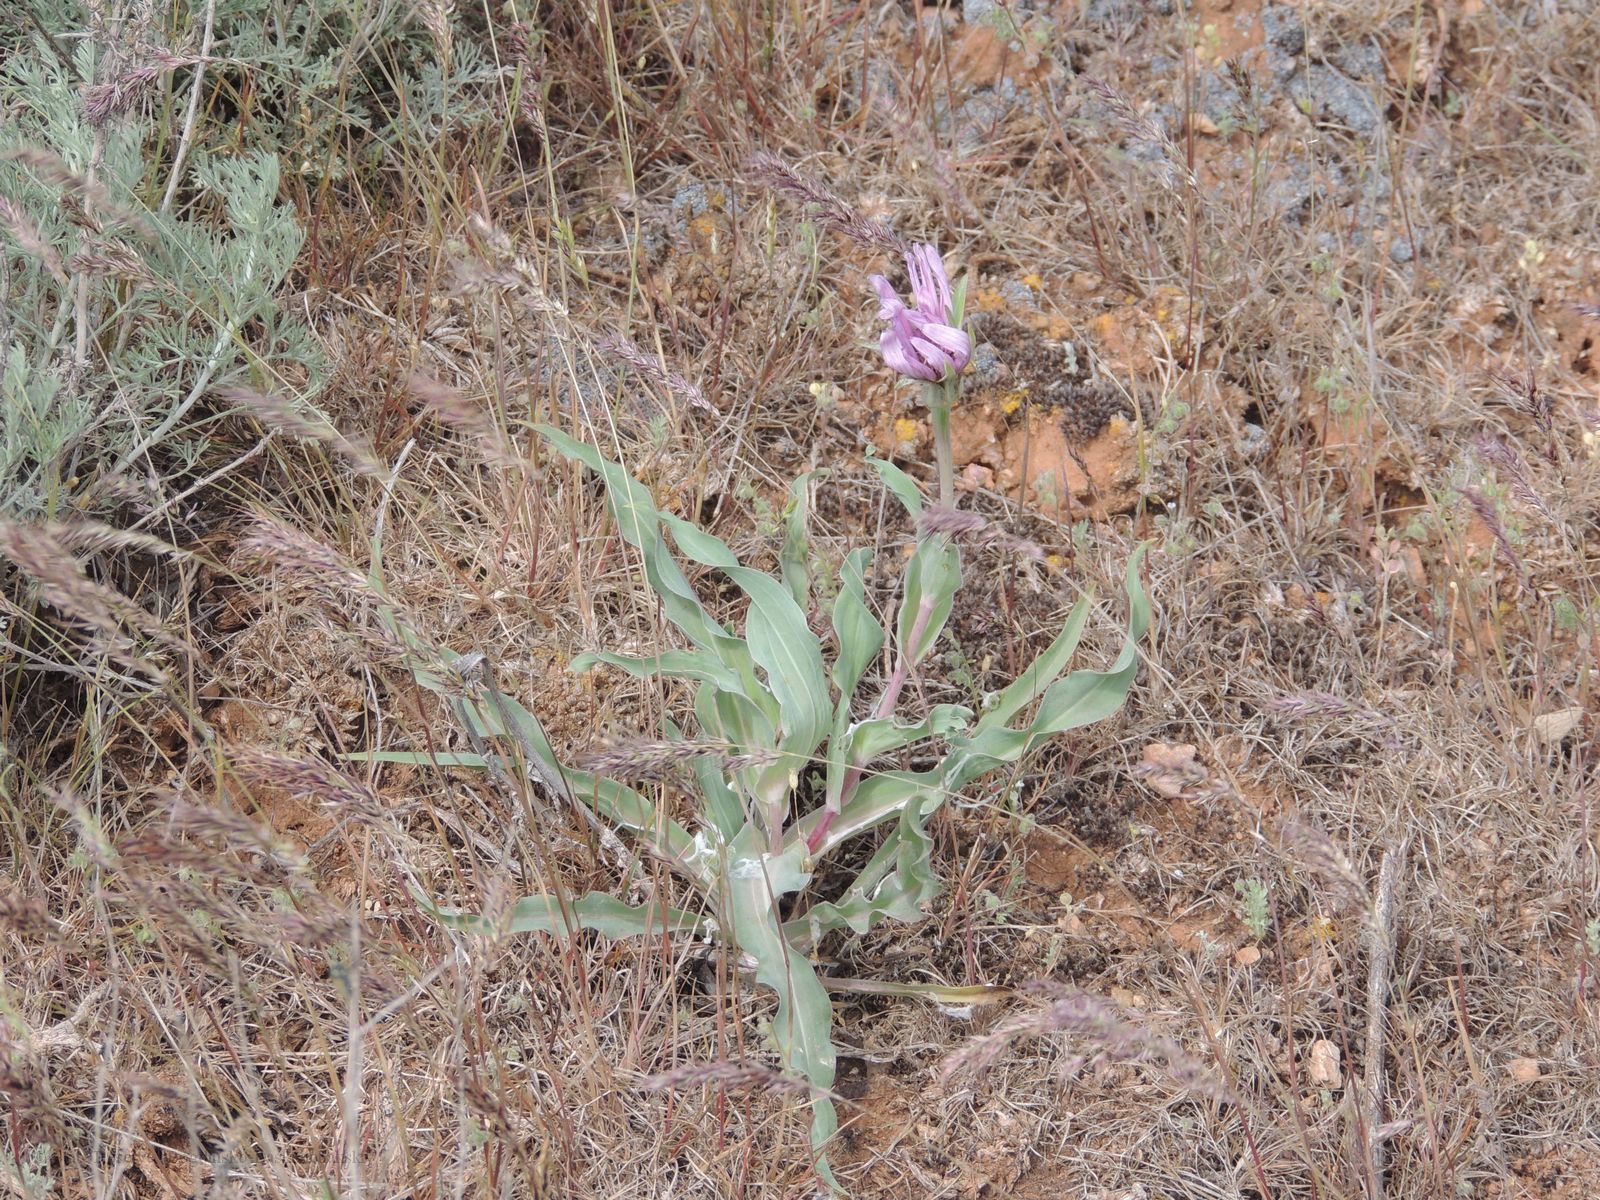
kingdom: Plantae
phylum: Tracheophyta
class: Magnoliopsida
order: Asterales
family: Asteraceae
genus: Tragopogon
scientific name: Tragopogon marginifolius
